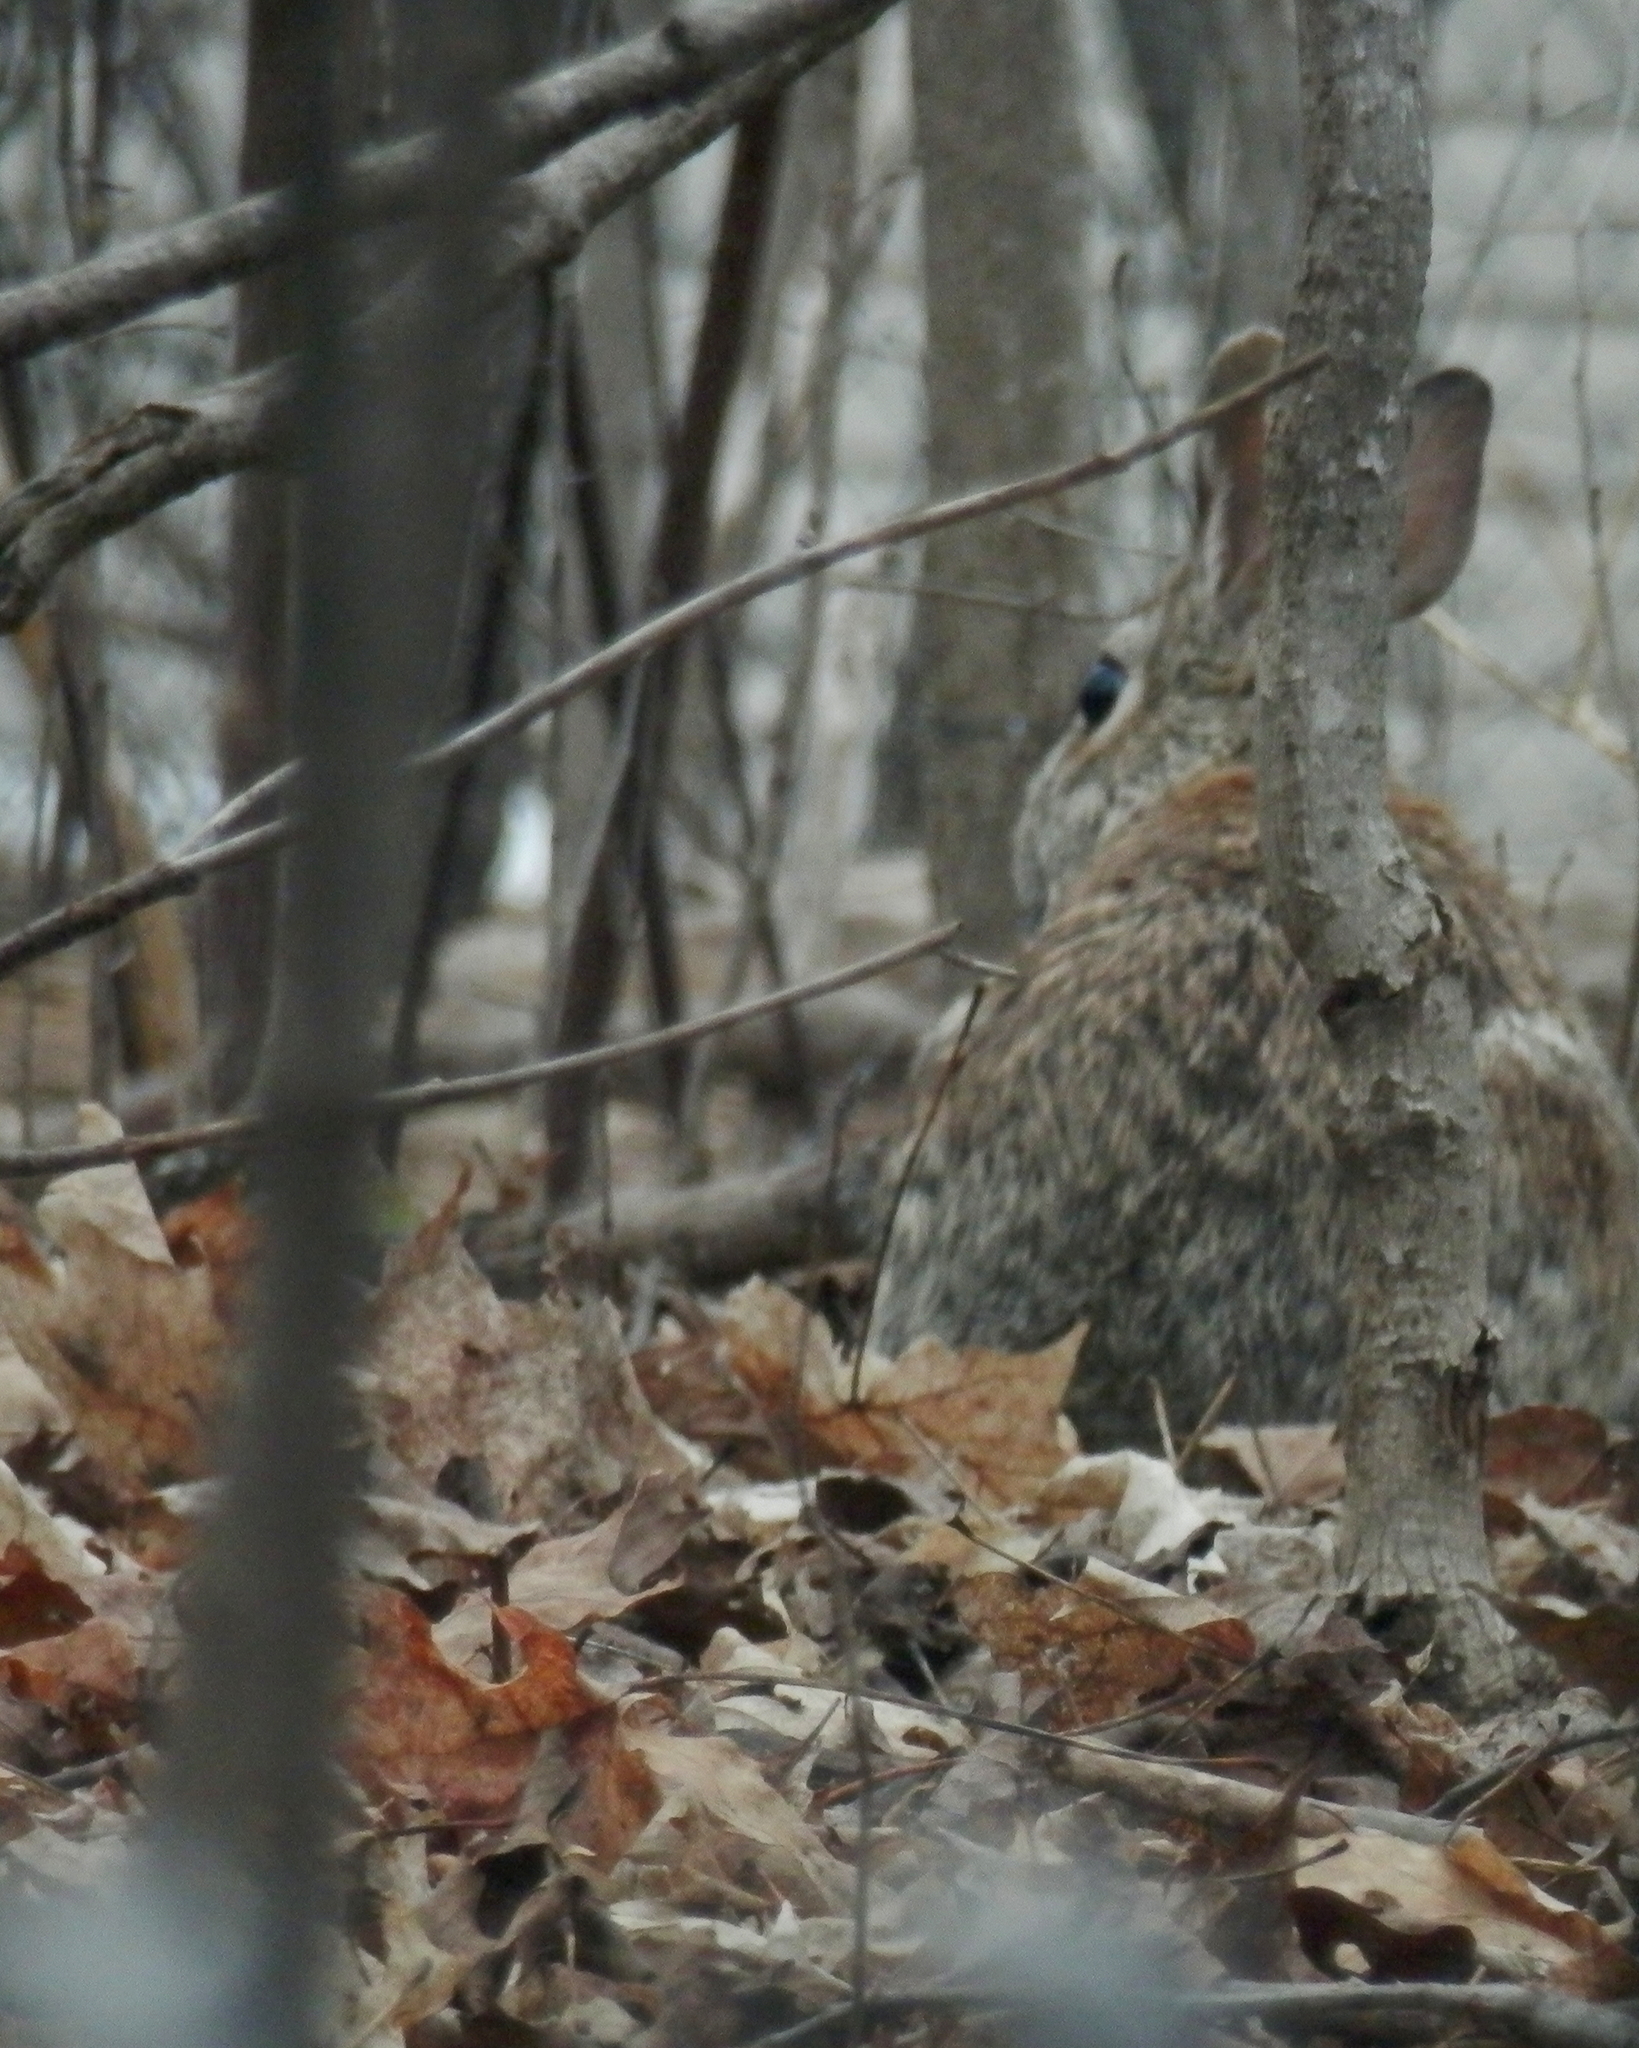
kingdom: Animalia
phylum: Chordata
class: Mammalia
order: Lagomorpha
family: Leporidae
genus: Sylvilagus
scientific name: Sylvilagus floridanus
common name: Eastern cottontail
